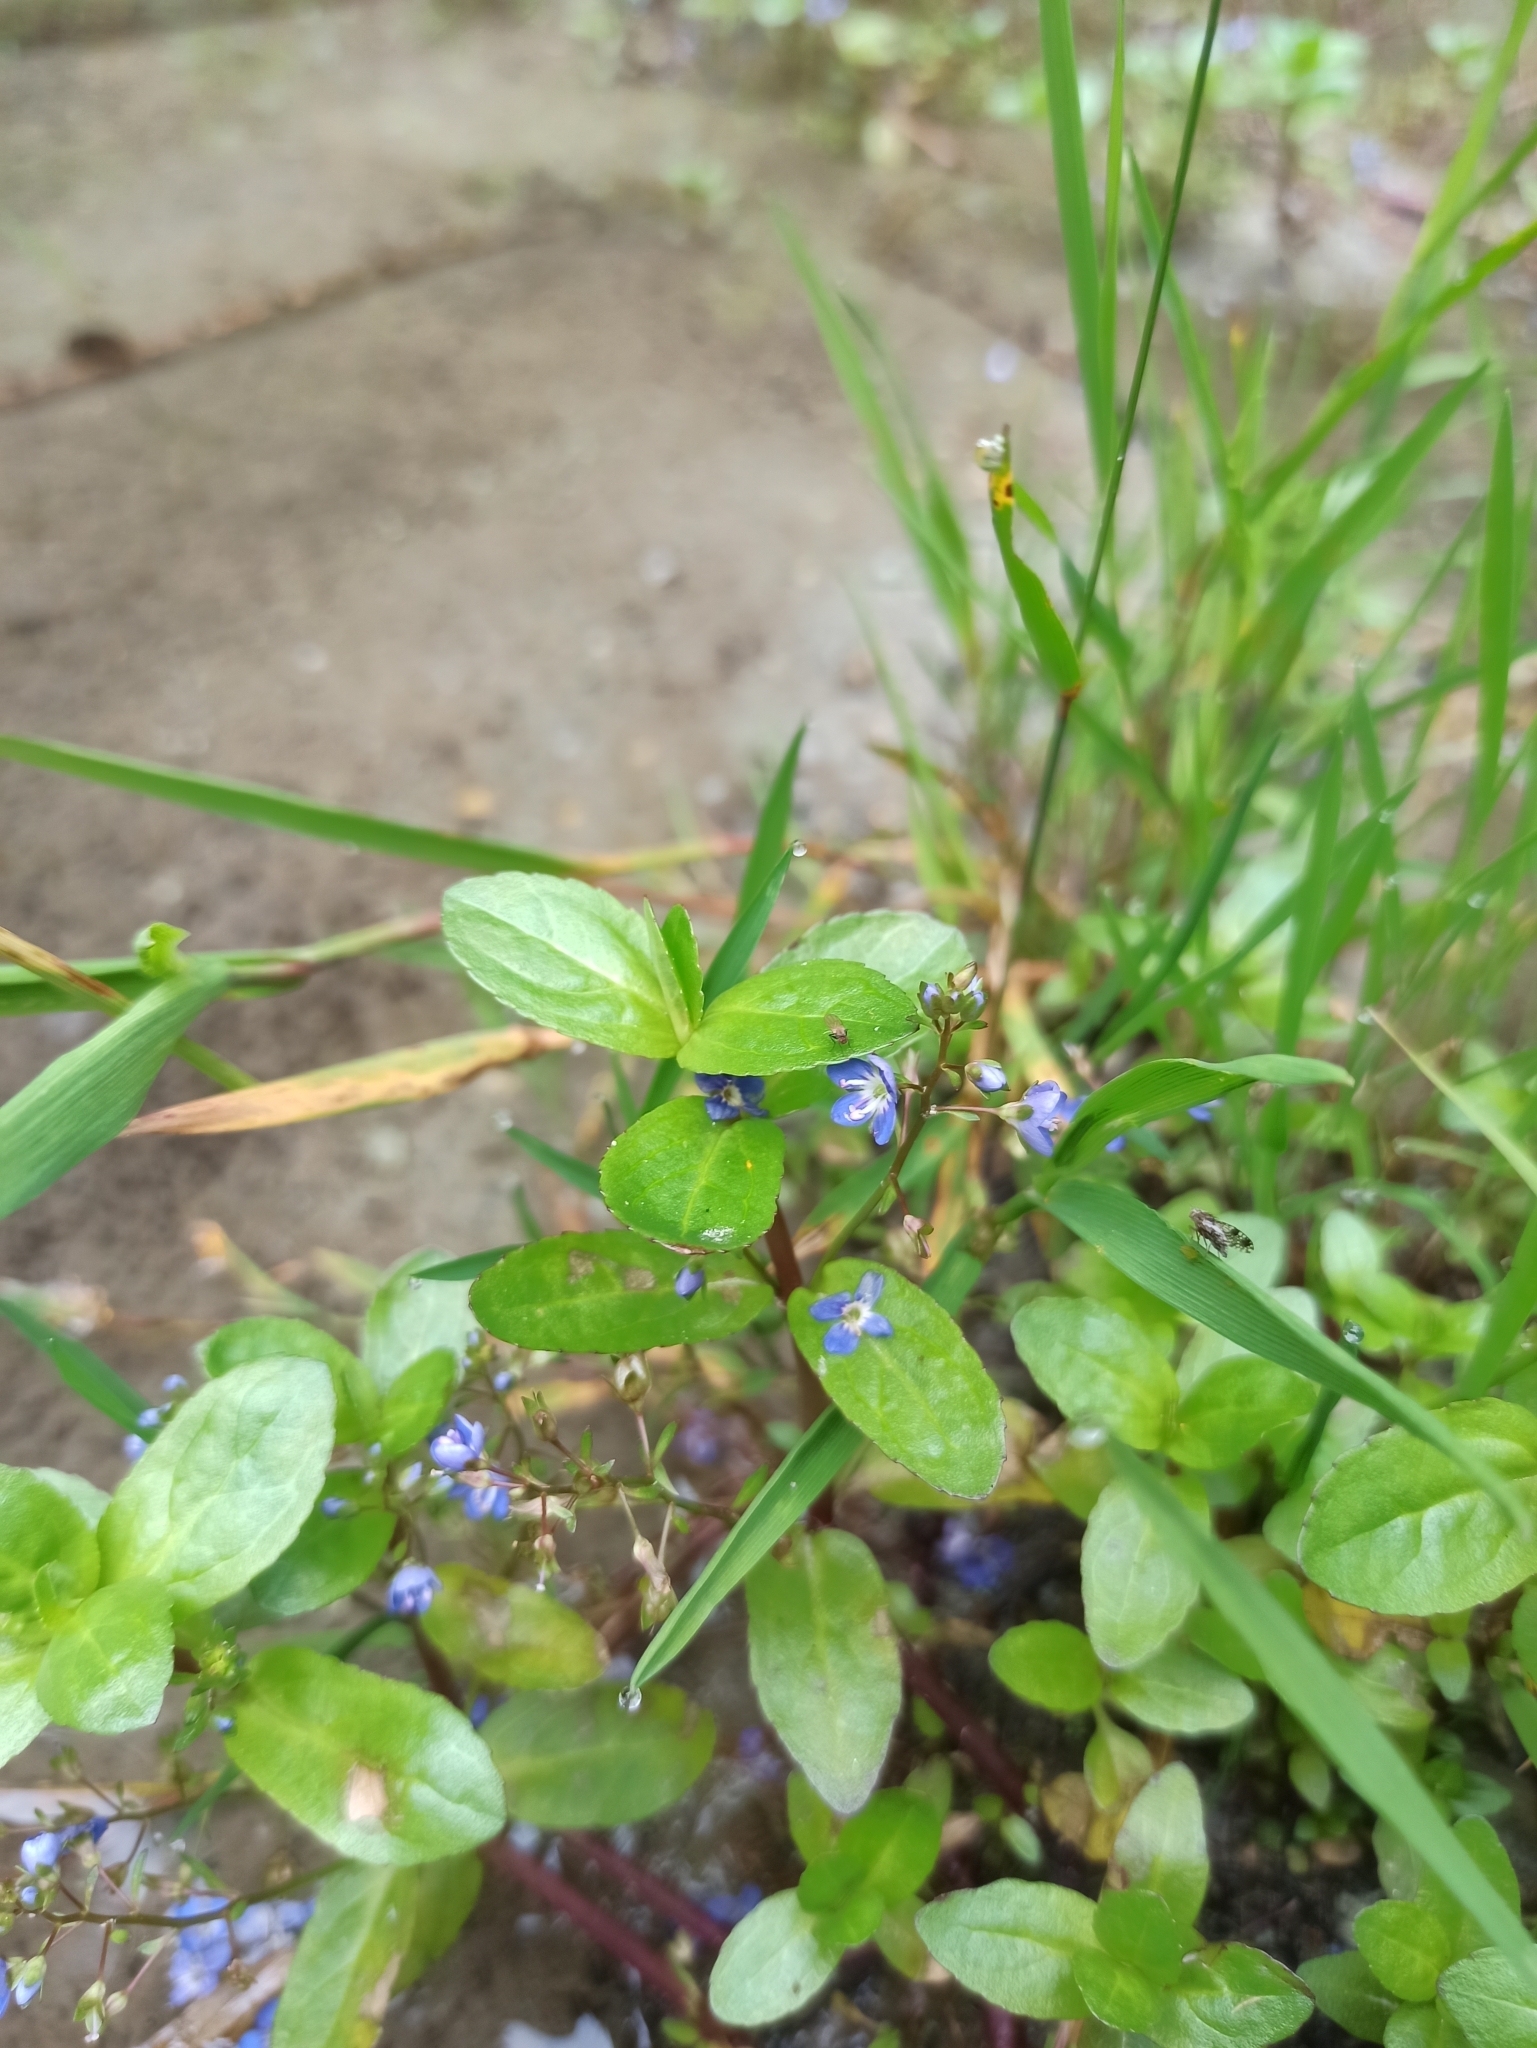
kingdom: Plantae
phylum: Tracheophyta
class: Magnoliopsida
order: Lamiales
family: Plantaginaceae
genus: Veronica
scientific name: Veronica beccabunga
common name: Brooklime
